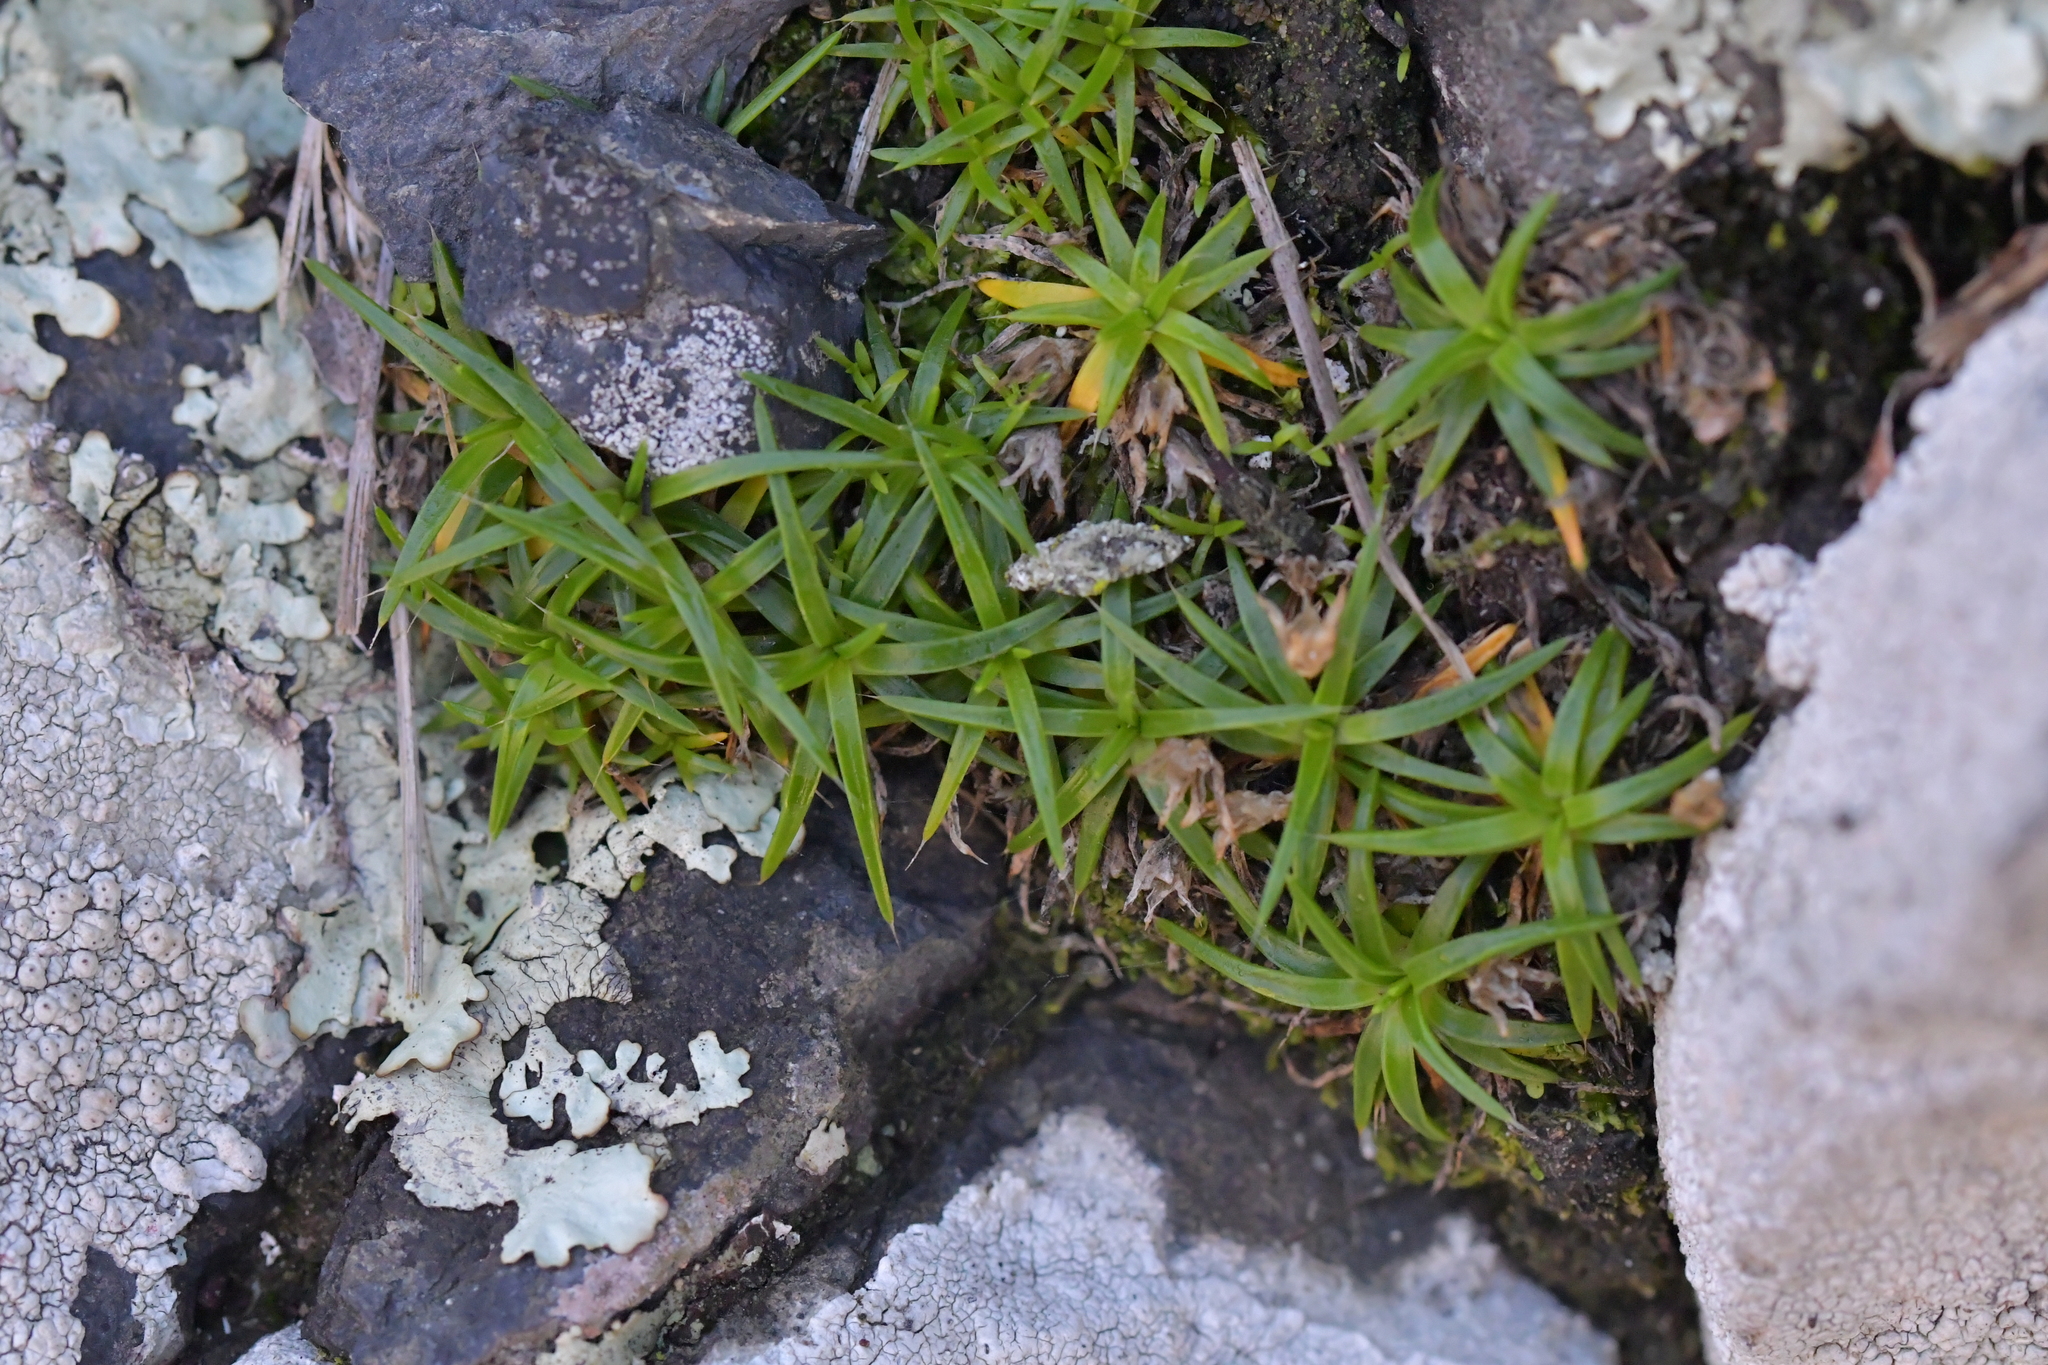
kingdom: Plantae
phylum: Tracheophyta
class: Magnoliopsida
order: Caryophyllales
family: Caryophyllaceae
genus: Colobanthus
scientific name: Colobanthus muelleri
